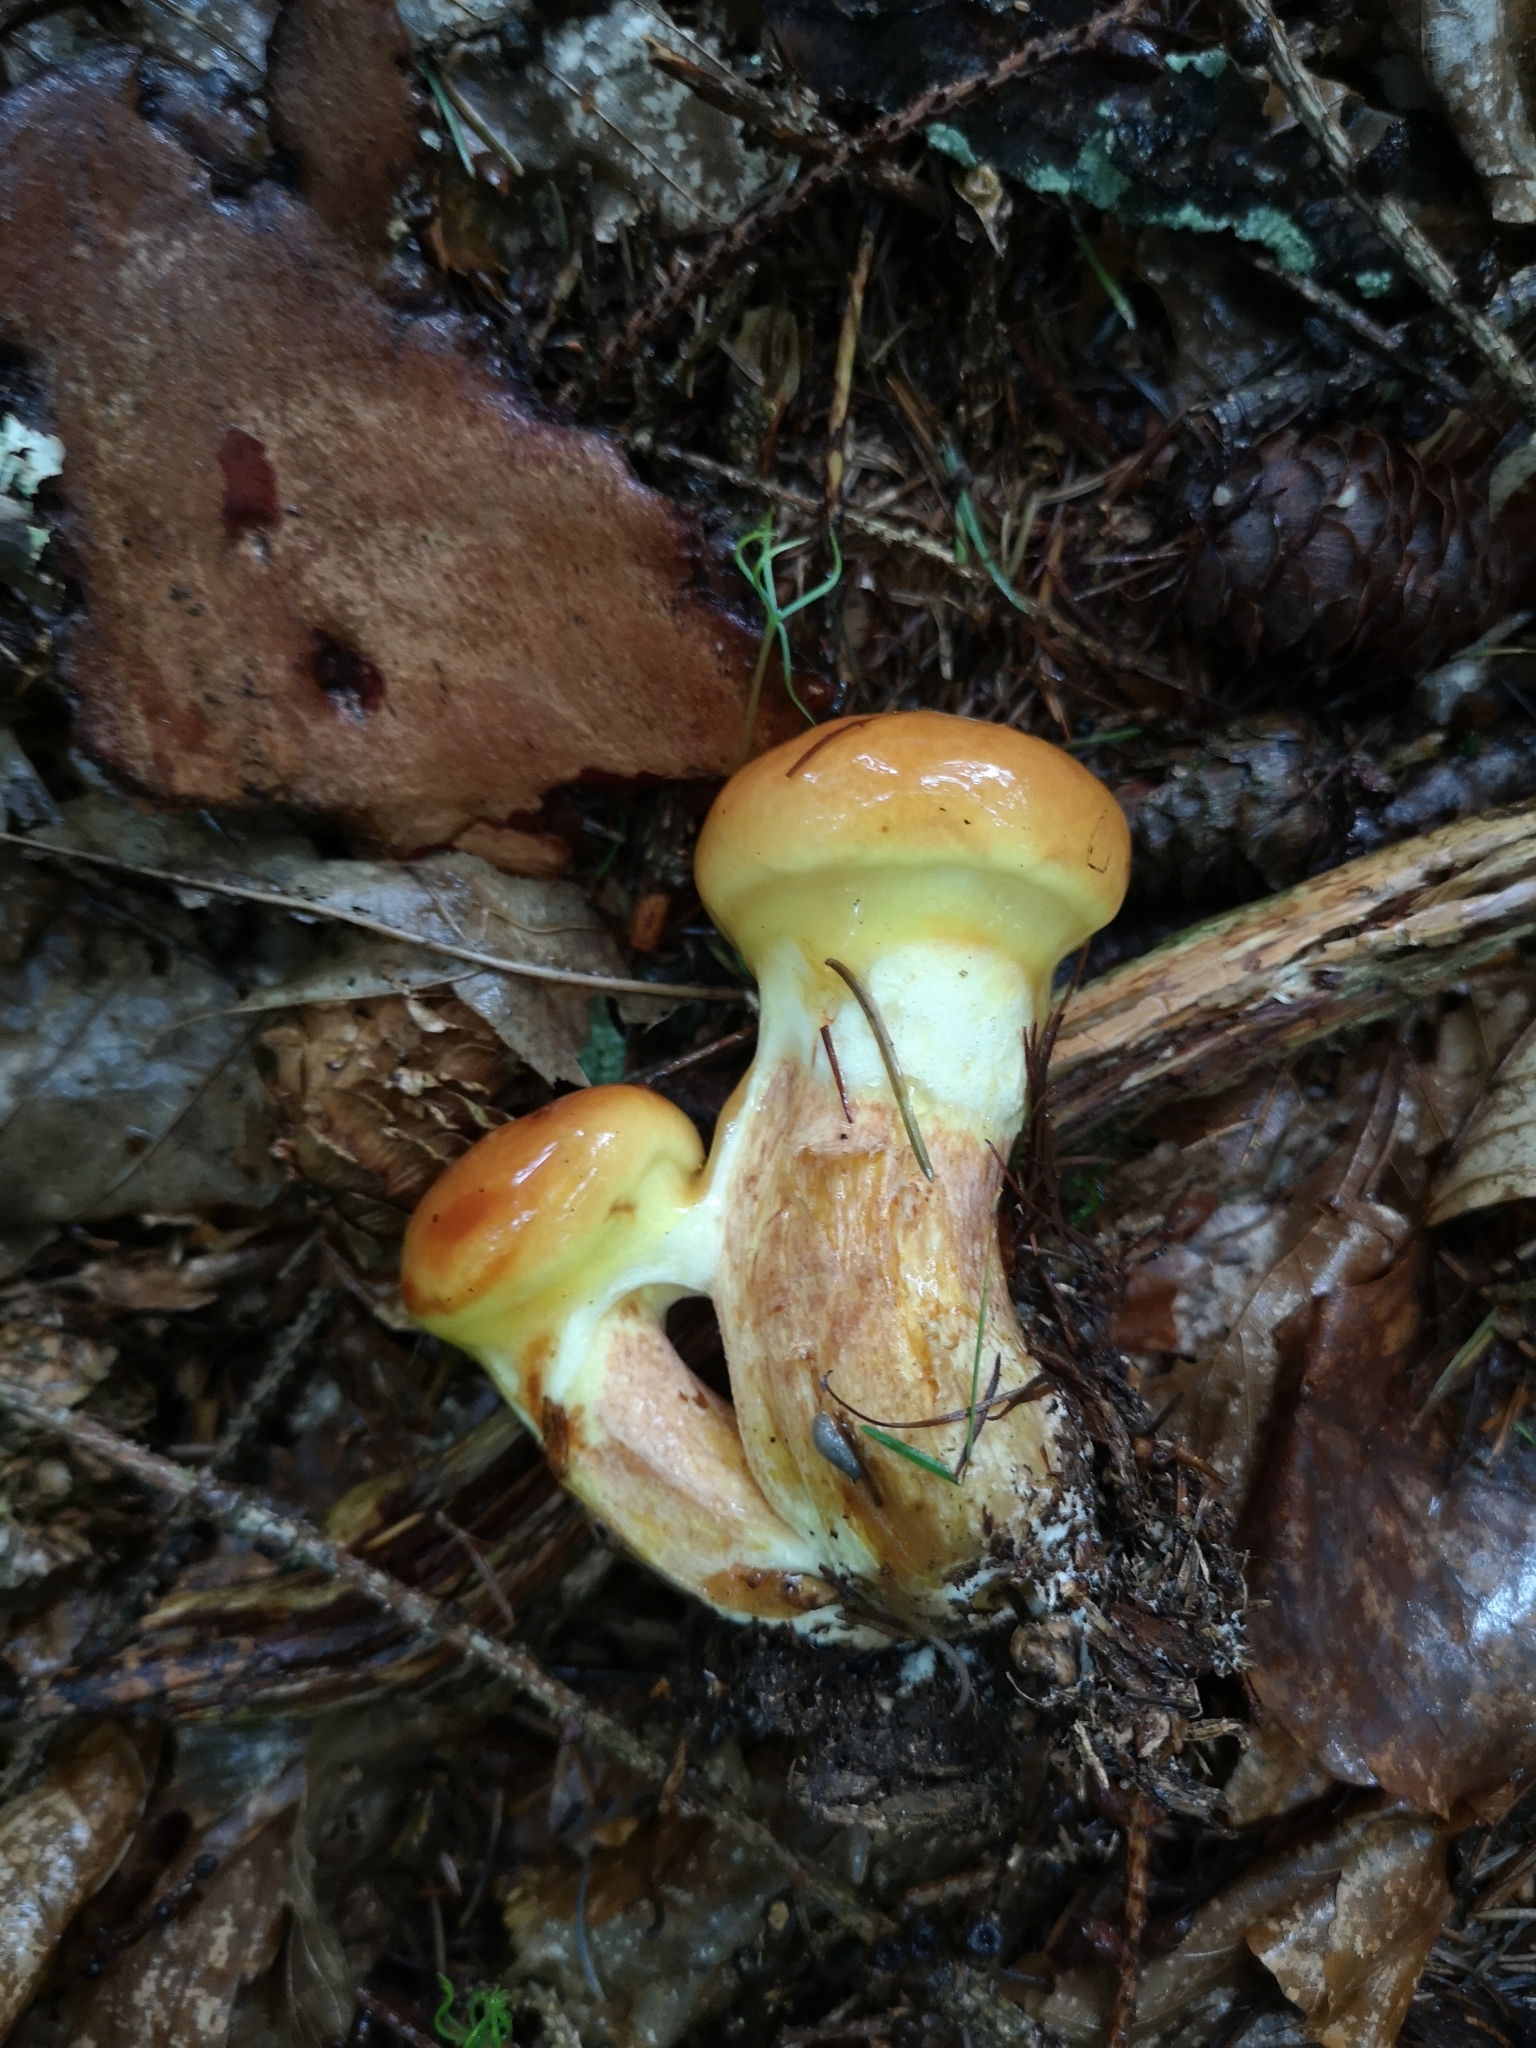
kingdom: Fungi
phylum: Basidiomycota
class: Agaricomycetes
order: Boletales
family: Suillaceae
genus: Suillus
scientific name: Suillus grevillei
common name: Larch bolete
